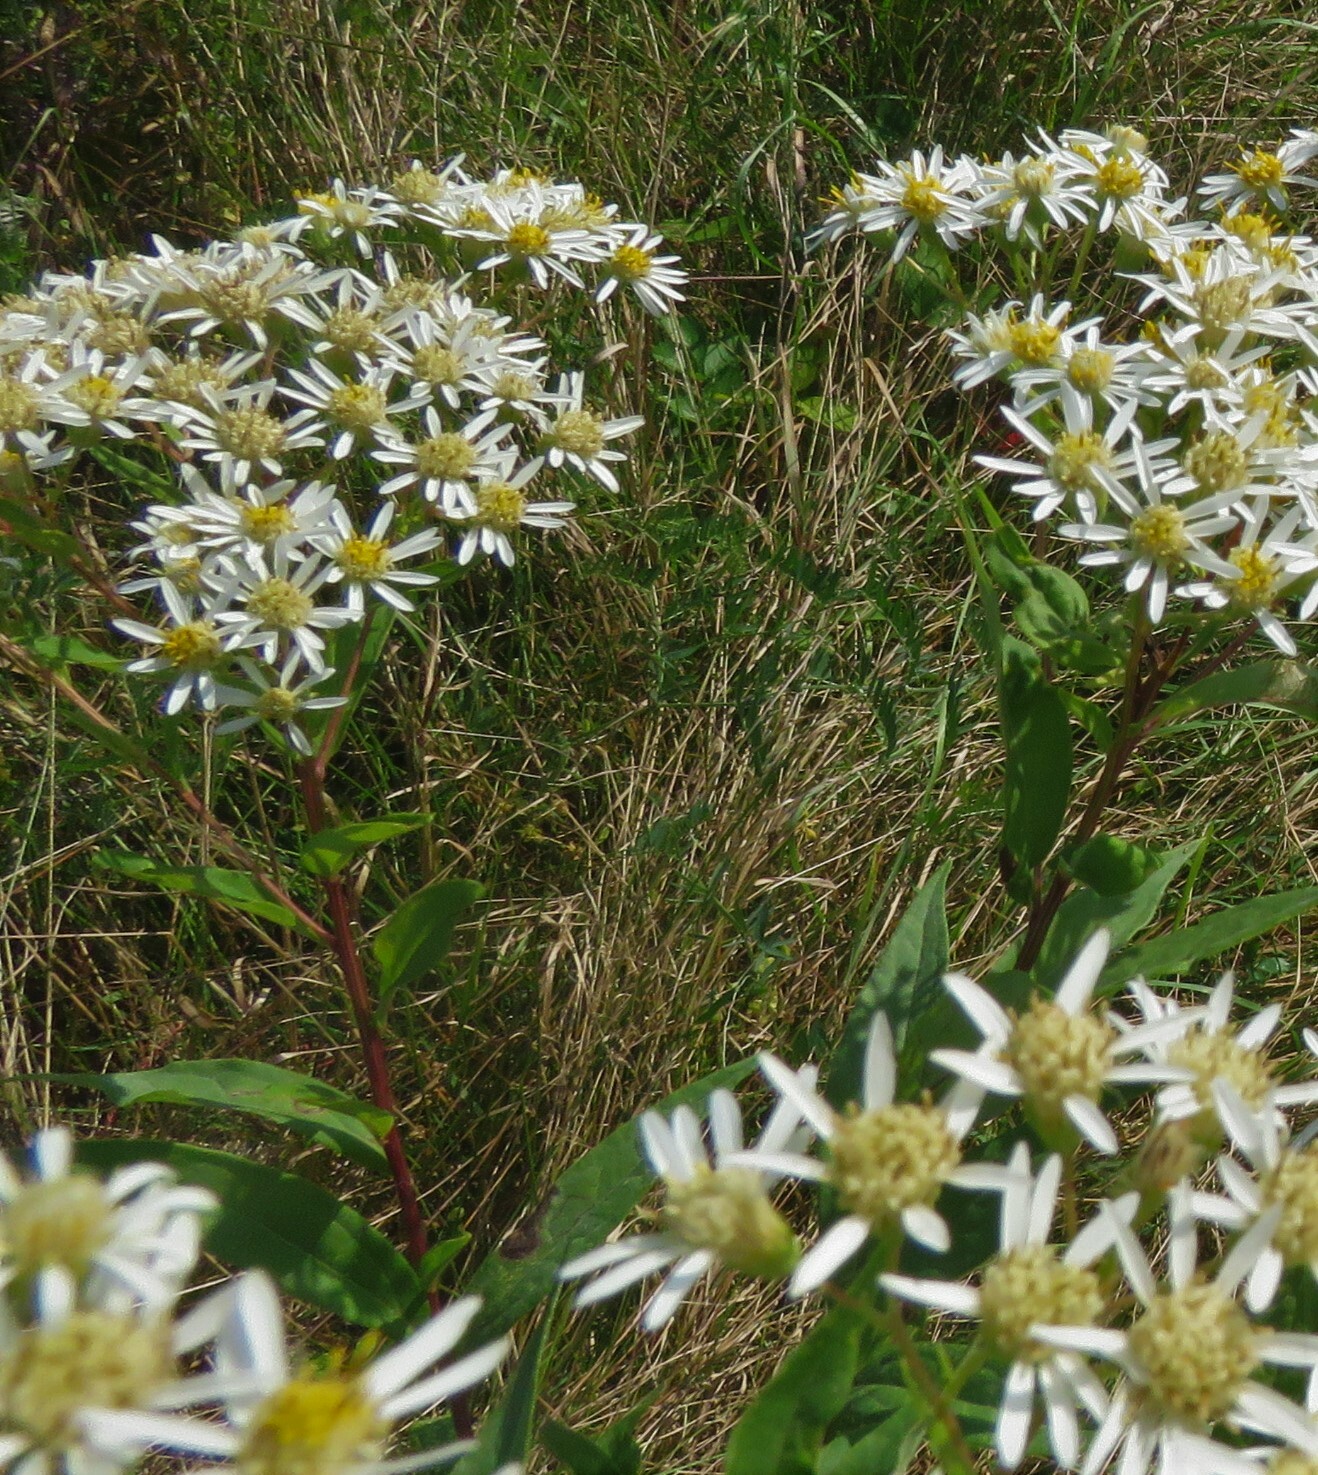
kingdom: Plantae
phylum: Tracheophyta
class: Magnoliopsida
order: Asterales
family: Asteraceae
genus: Doellingeria
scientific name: Doellingeria umbellata
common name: Flat-top white aster
